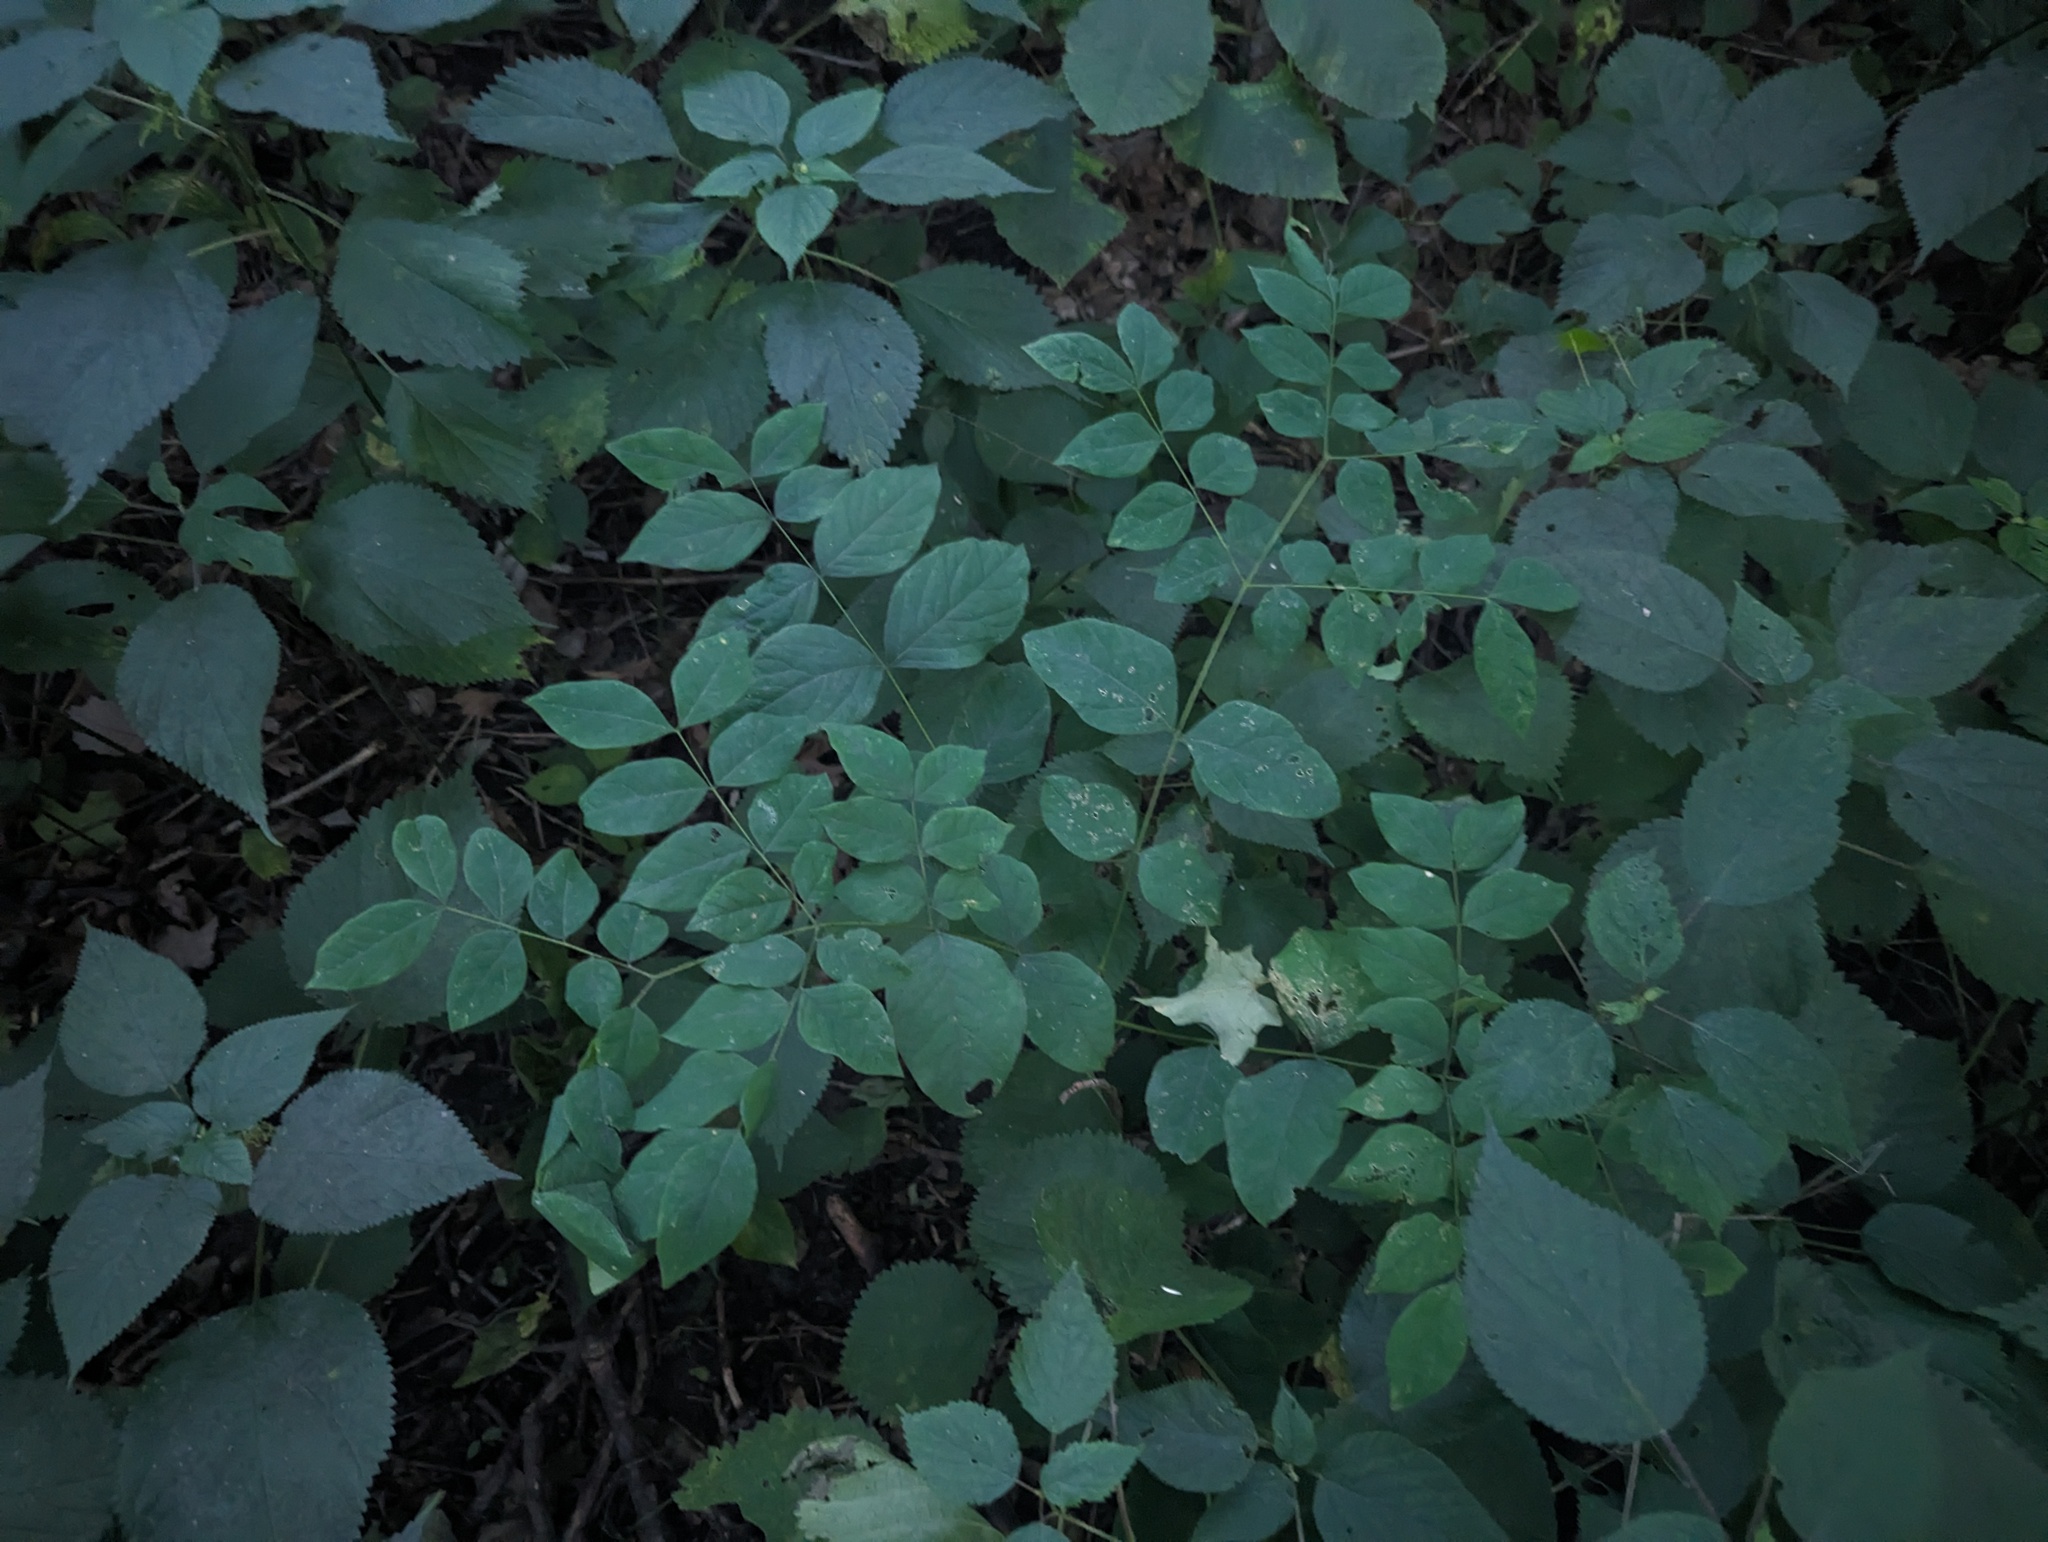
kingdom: Plantae
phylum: Tracheophyta
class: Magnoliopsida
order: Fabales
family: Fabaceae
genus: Gymnocladus
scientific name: Gymnocladus dioicus
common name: Kentucky coffee-tree
